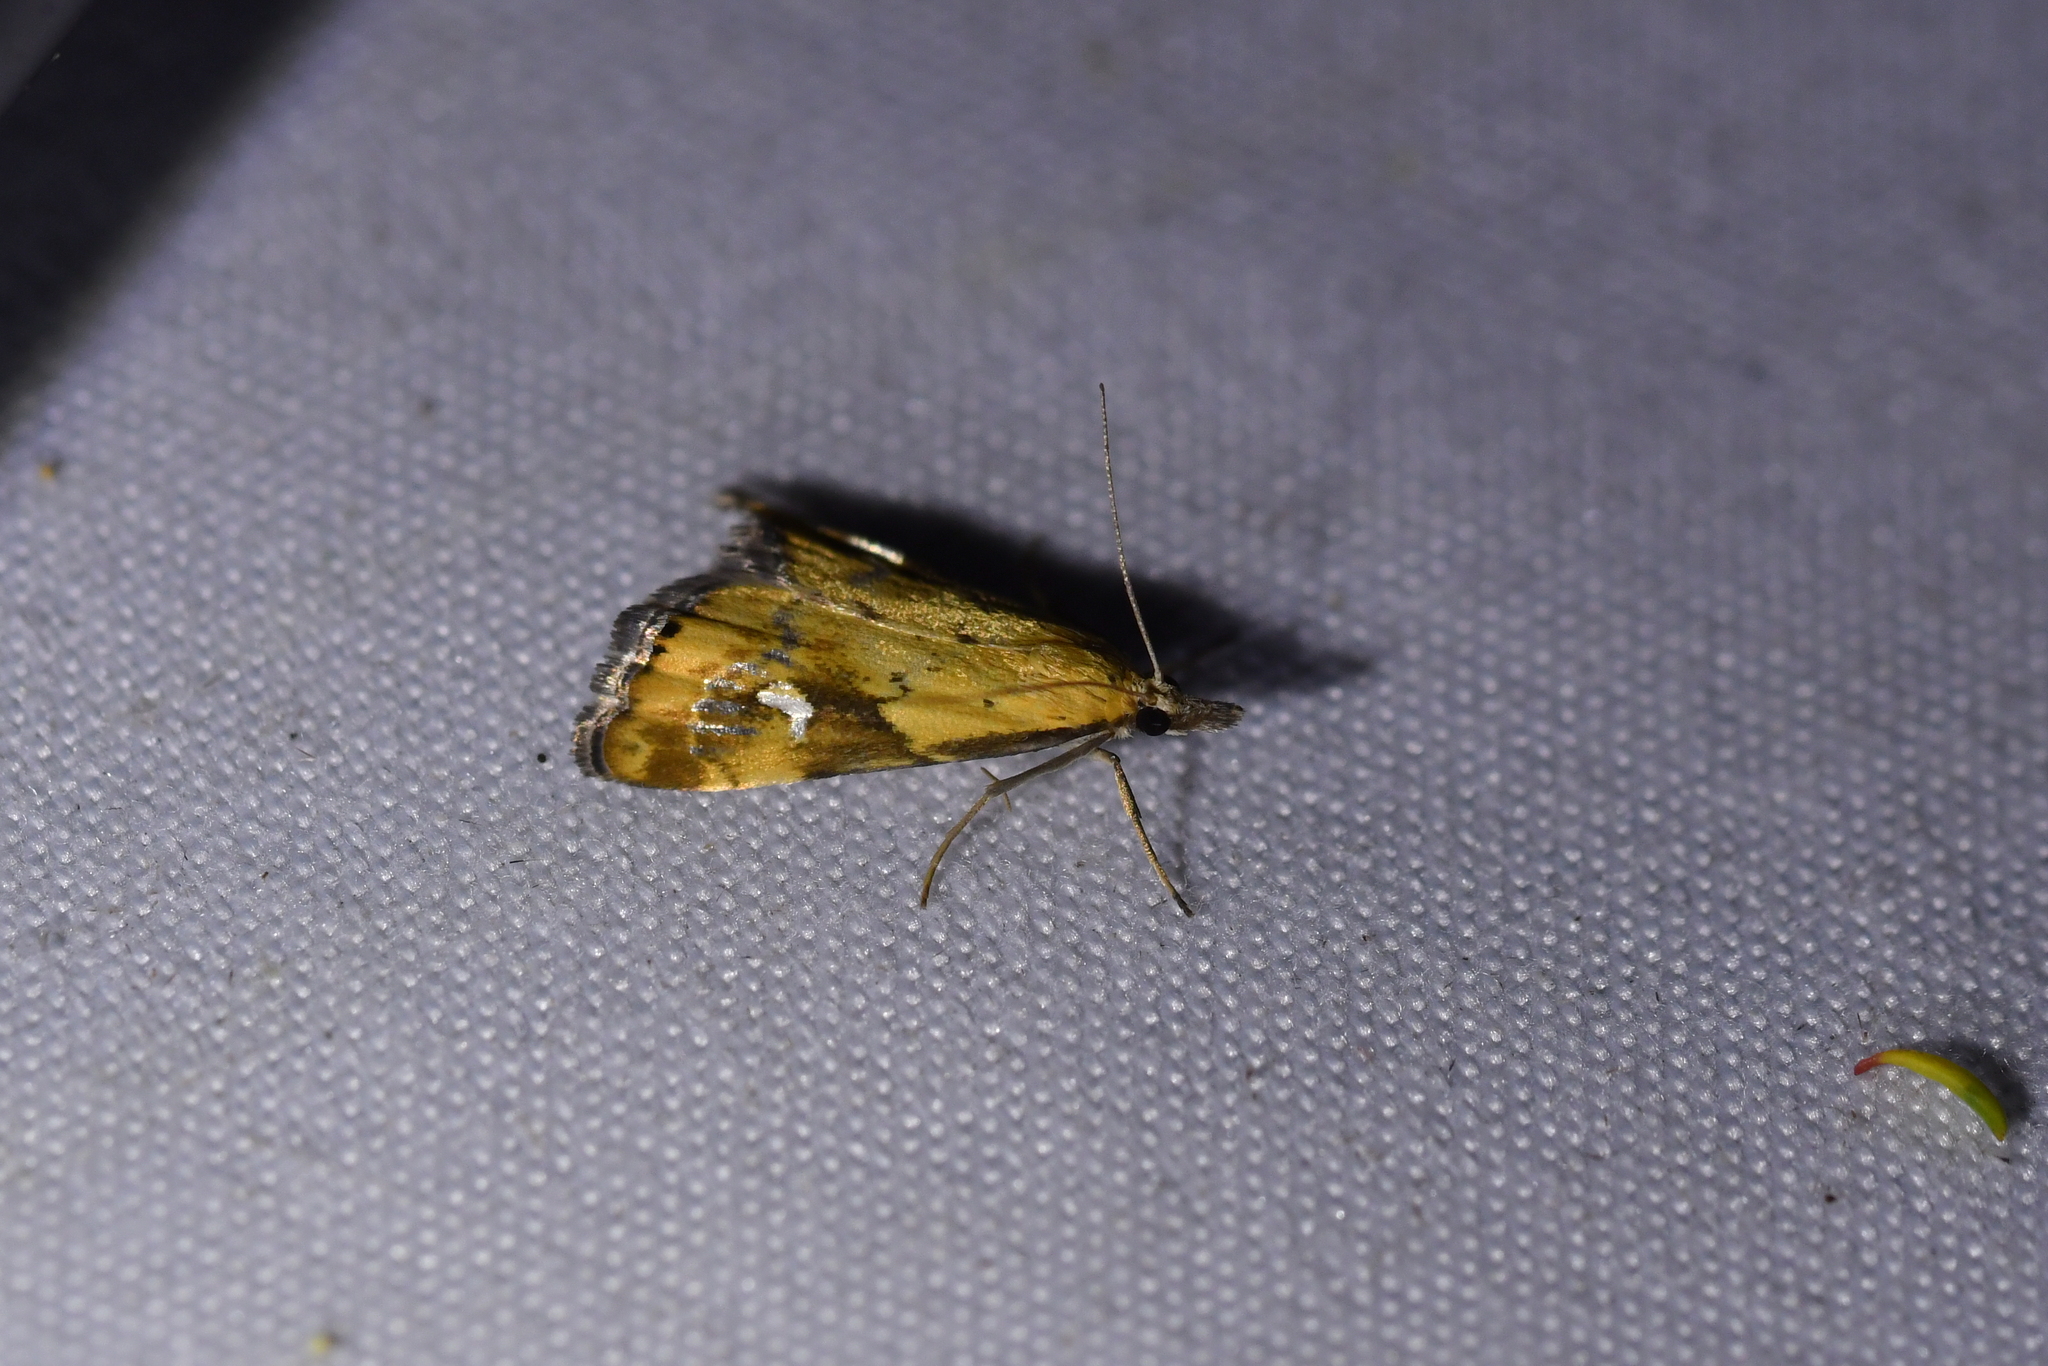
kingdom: Animalia
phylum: Arthropoda
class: Insecta
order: Lepidoptera
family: Crambidae
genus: Glaucocharis
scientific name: Glaucocharis lepidella
